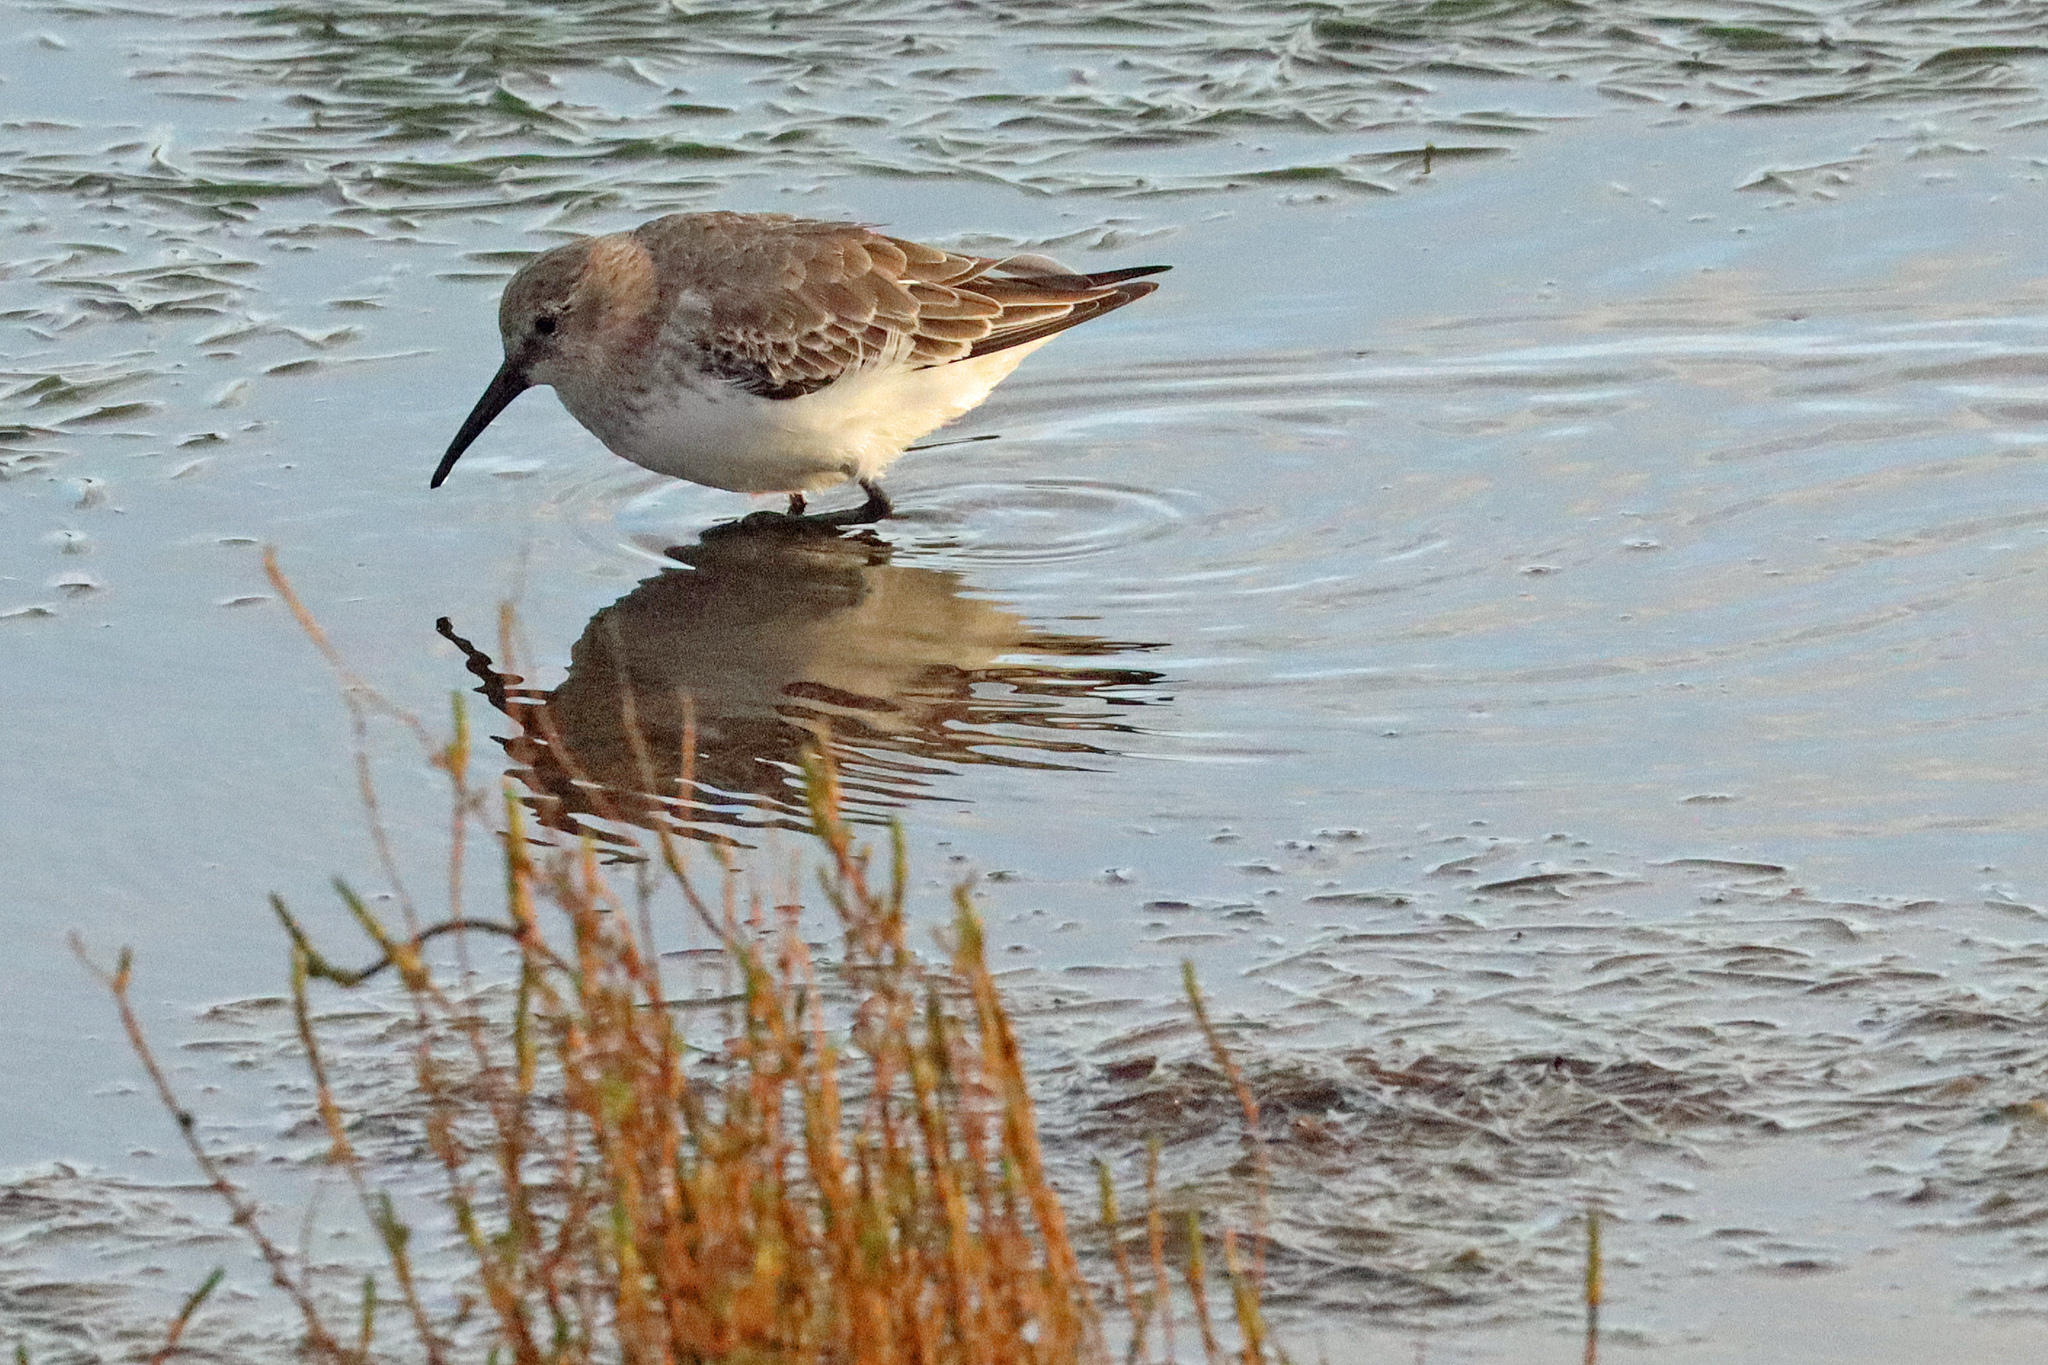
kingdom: Animalia
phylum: Chordata
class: Aves
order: Charadriiformes
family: Scolopacidae
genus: Calidris
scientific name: Calidris alpina
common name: Dunlin
